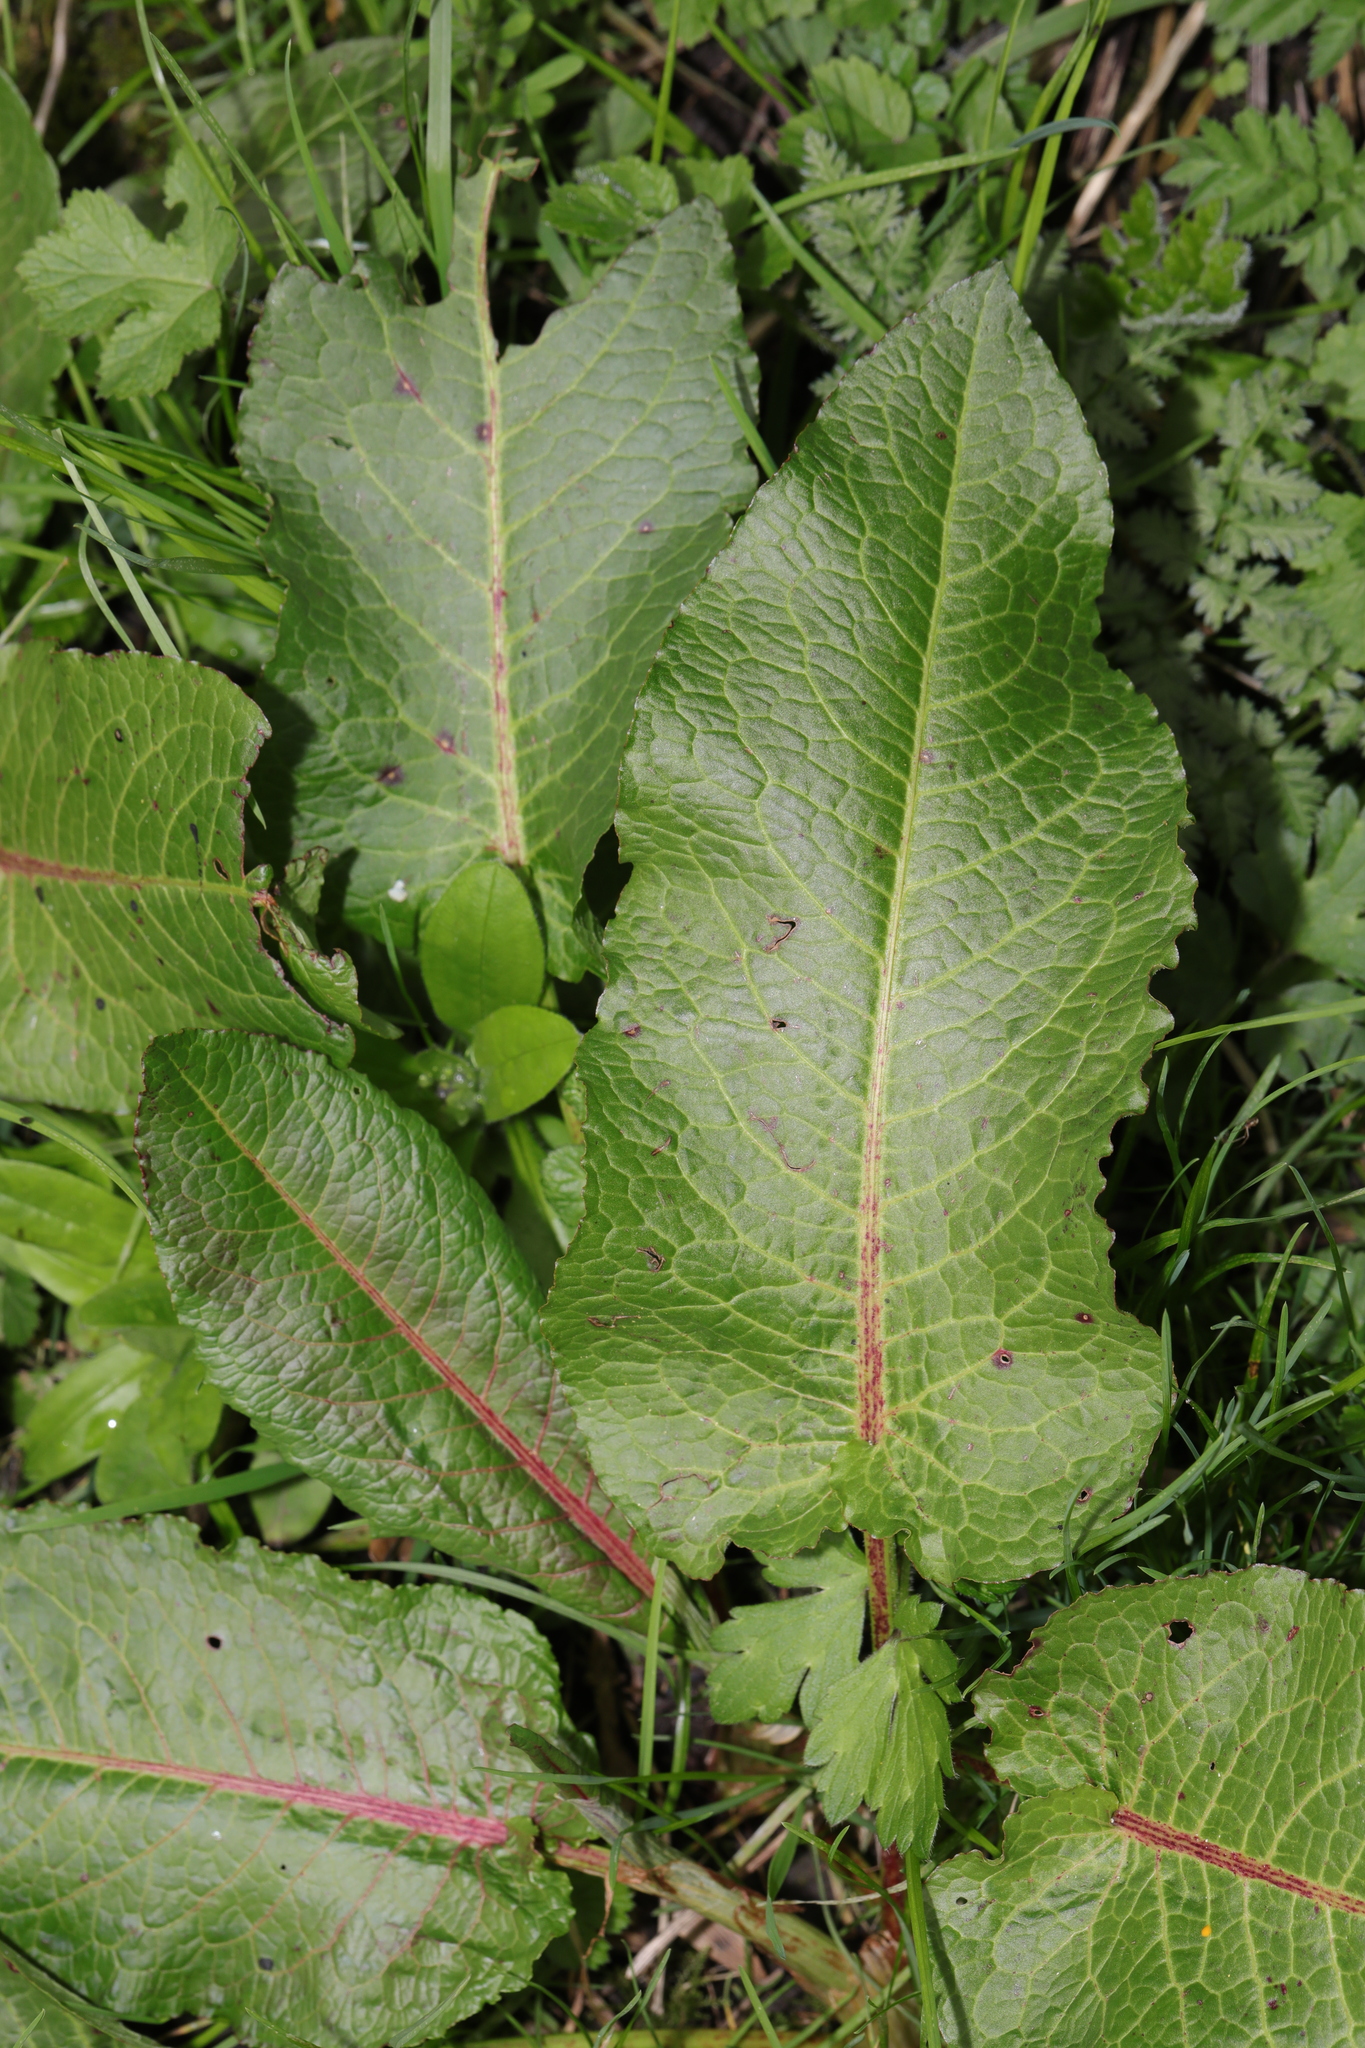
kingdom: Plantae
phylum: Tracheophyta
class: Magnoliopsida
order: Caryophyllales
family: Polygonaceae
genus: Rumex
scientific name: Rumex obtusifolius
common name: Bitter dock
